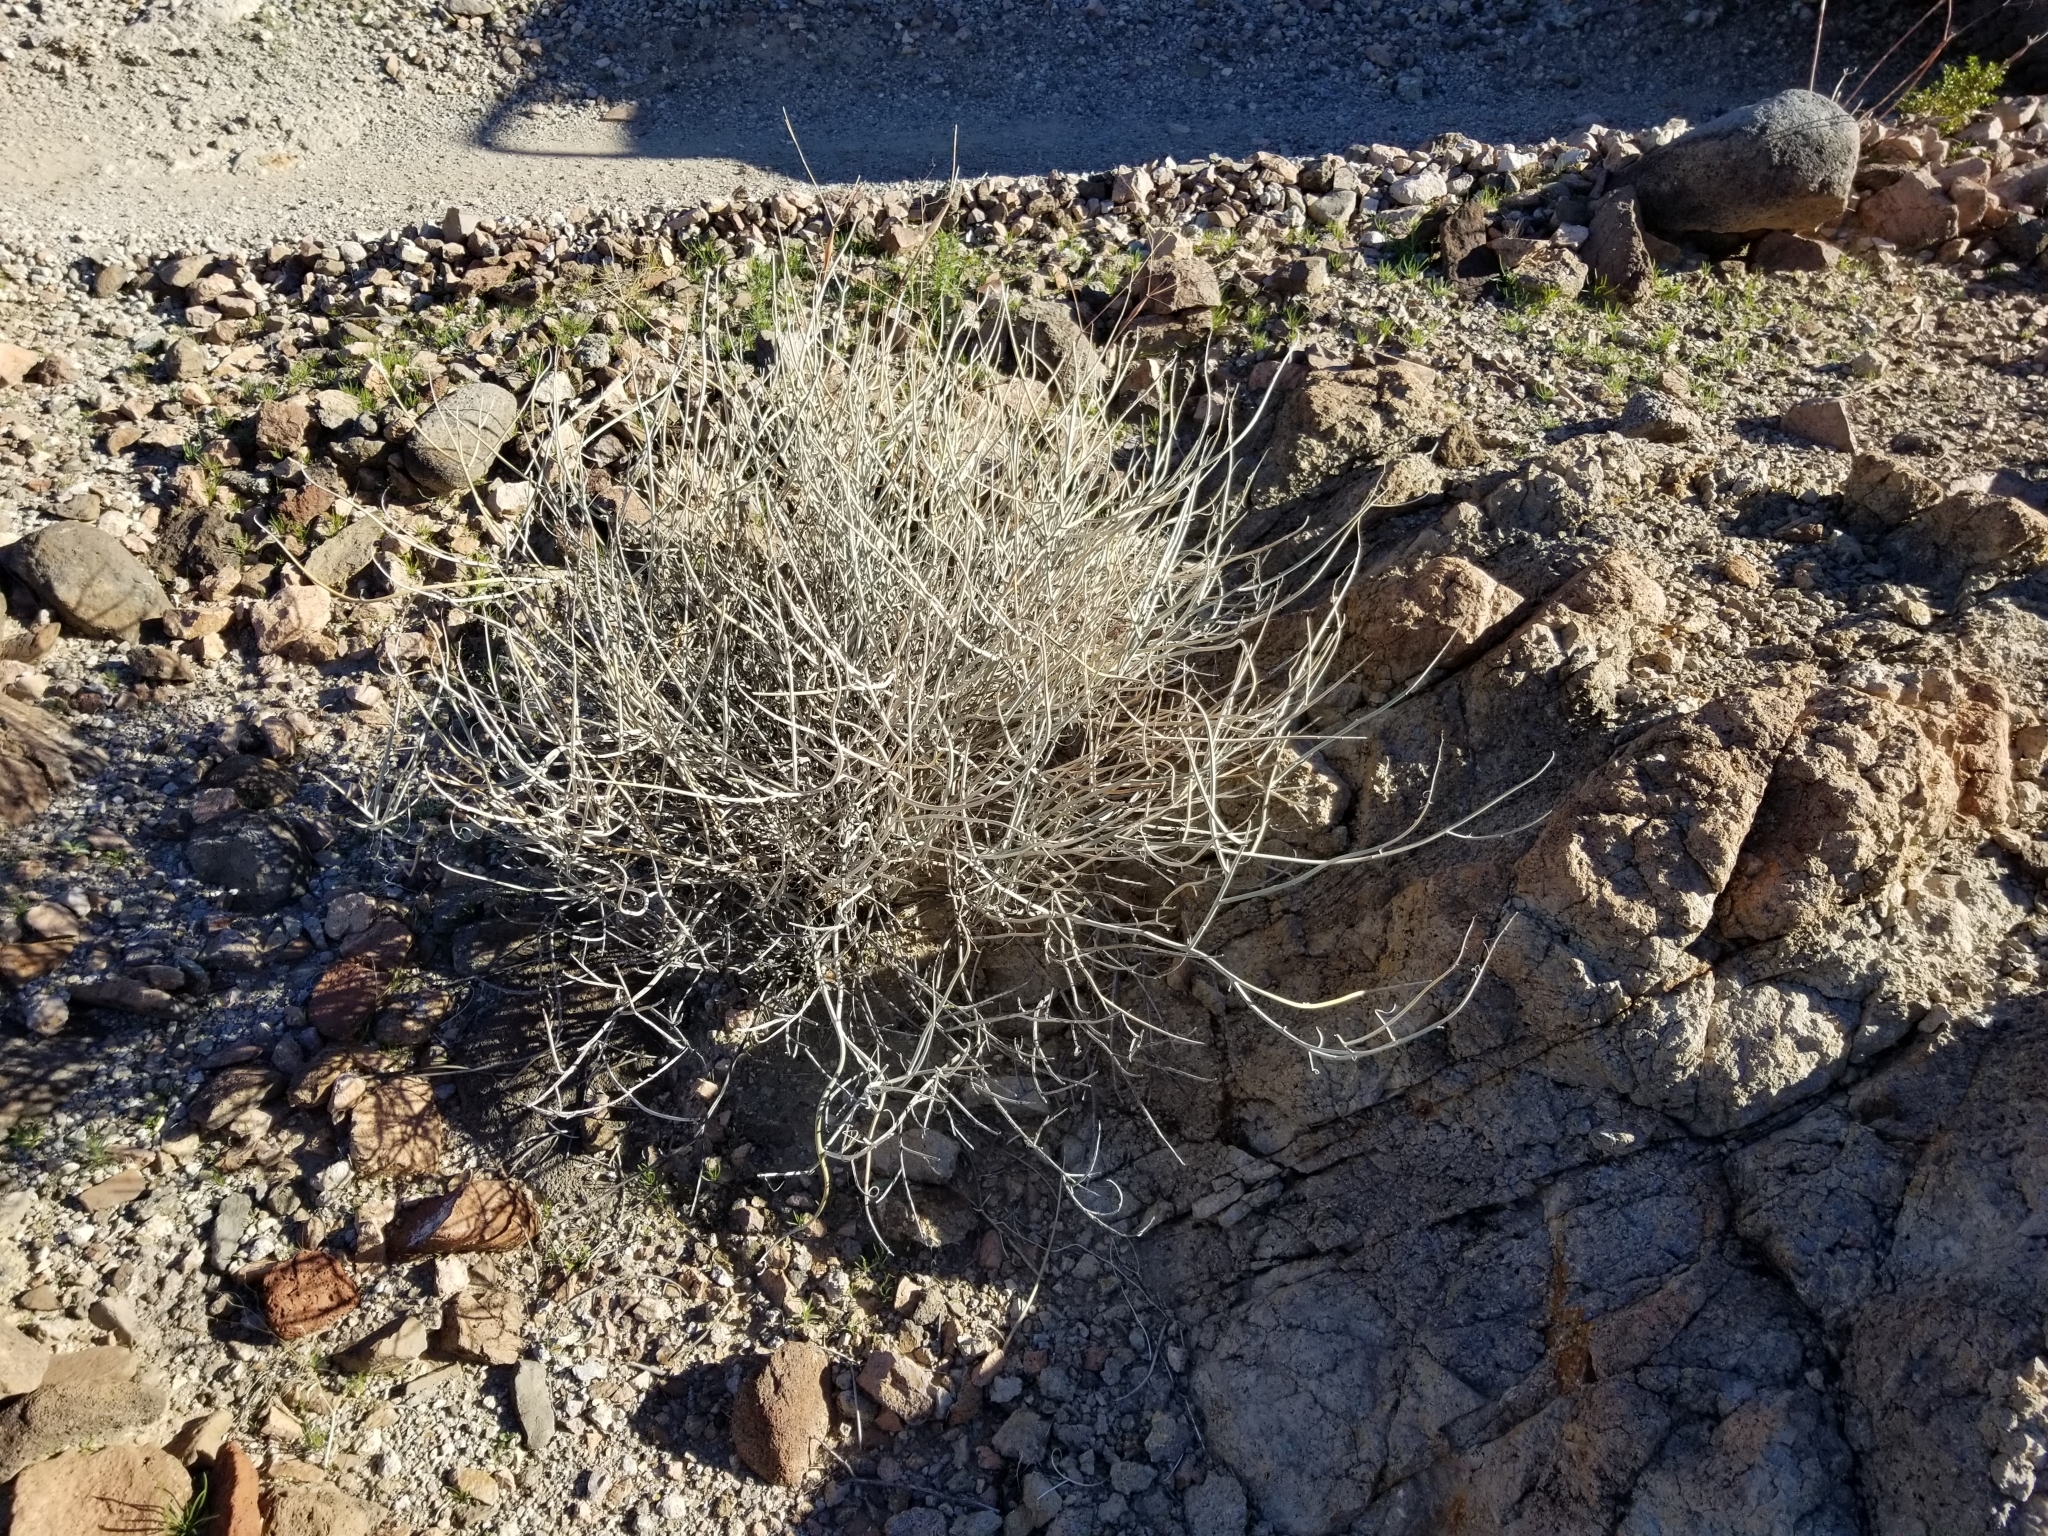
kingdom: Plantae
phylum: Tracheophyta
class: Magnoliopsida
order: Fabales
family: Fabaceae
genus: Senna
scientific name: Senna armata
